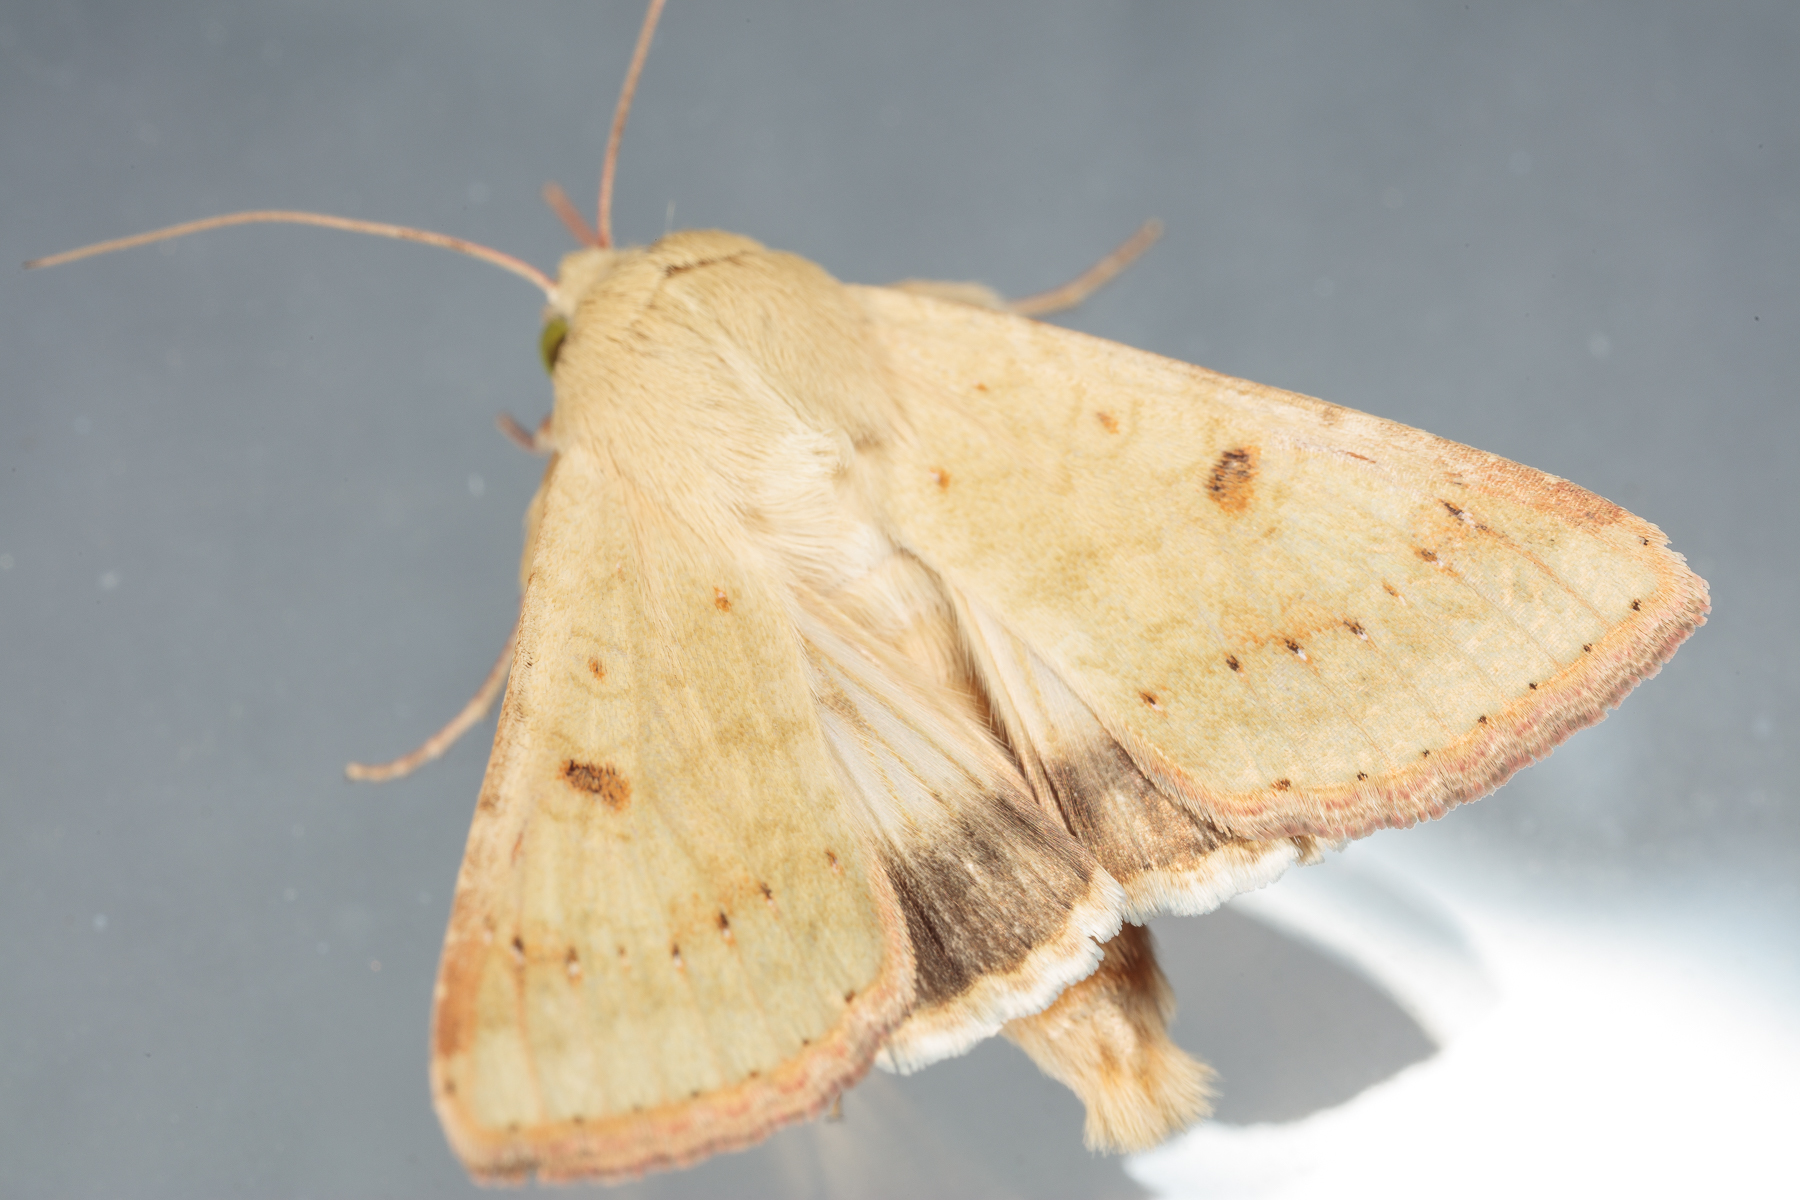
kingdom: Animalia
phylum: Arthropoda
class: Insecta
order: Lepidoptera
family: Noctuidae
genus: Helicoverpa
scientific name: Helicoverpa zea
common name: Bollworm
